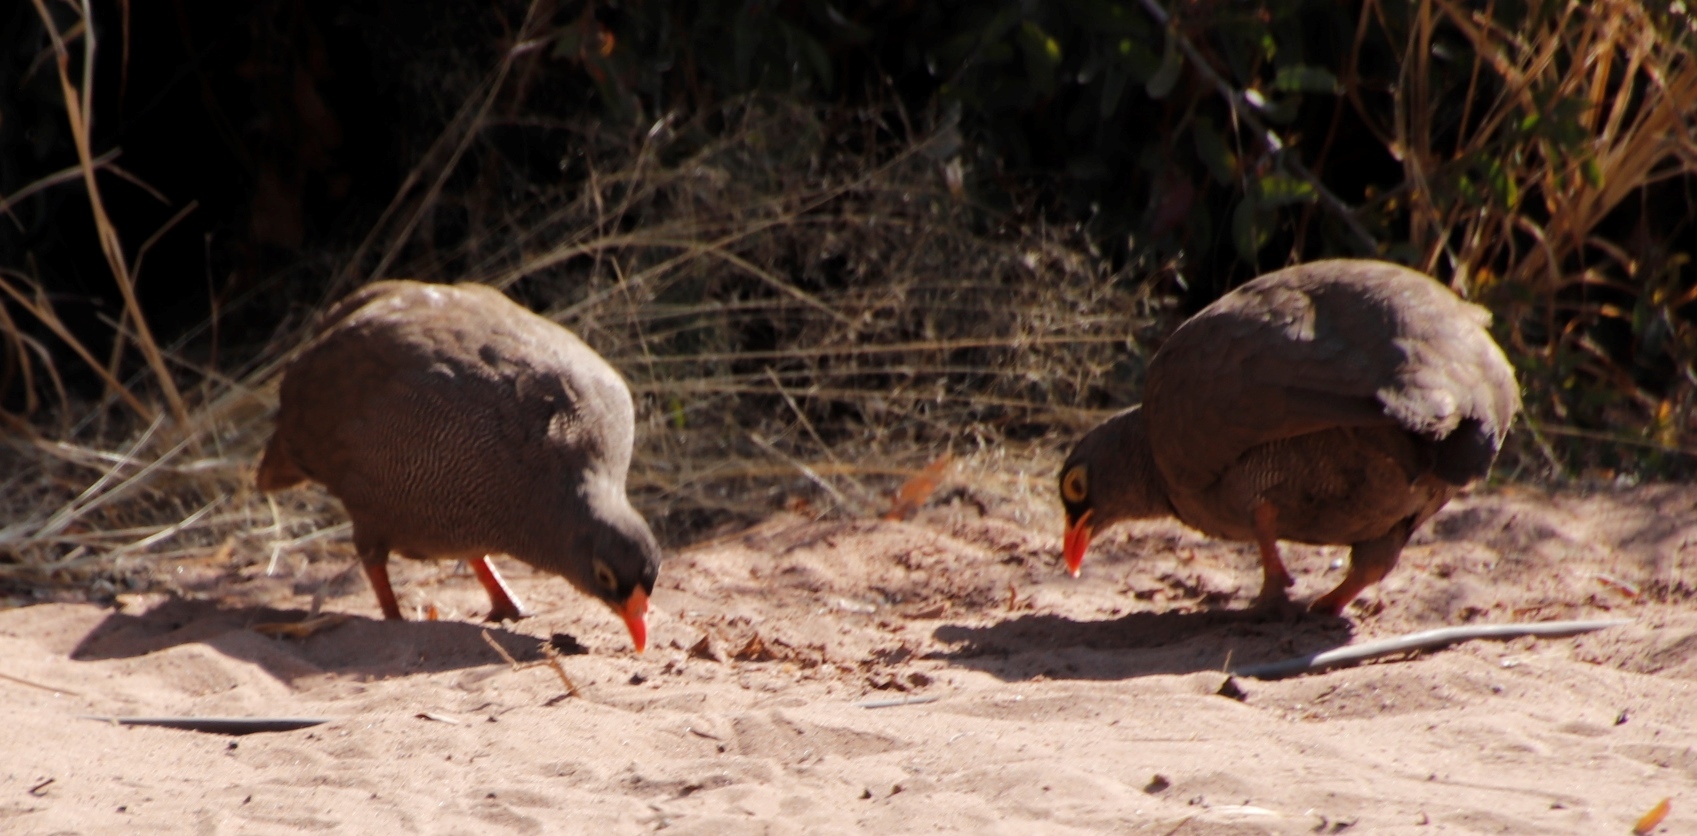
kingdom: Animalia
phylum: Chordata
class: Aves
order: Galliformes
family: Phasianidae
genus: Pternistis
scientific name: Pternistis adspersus
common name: Red-billed spurfowl
